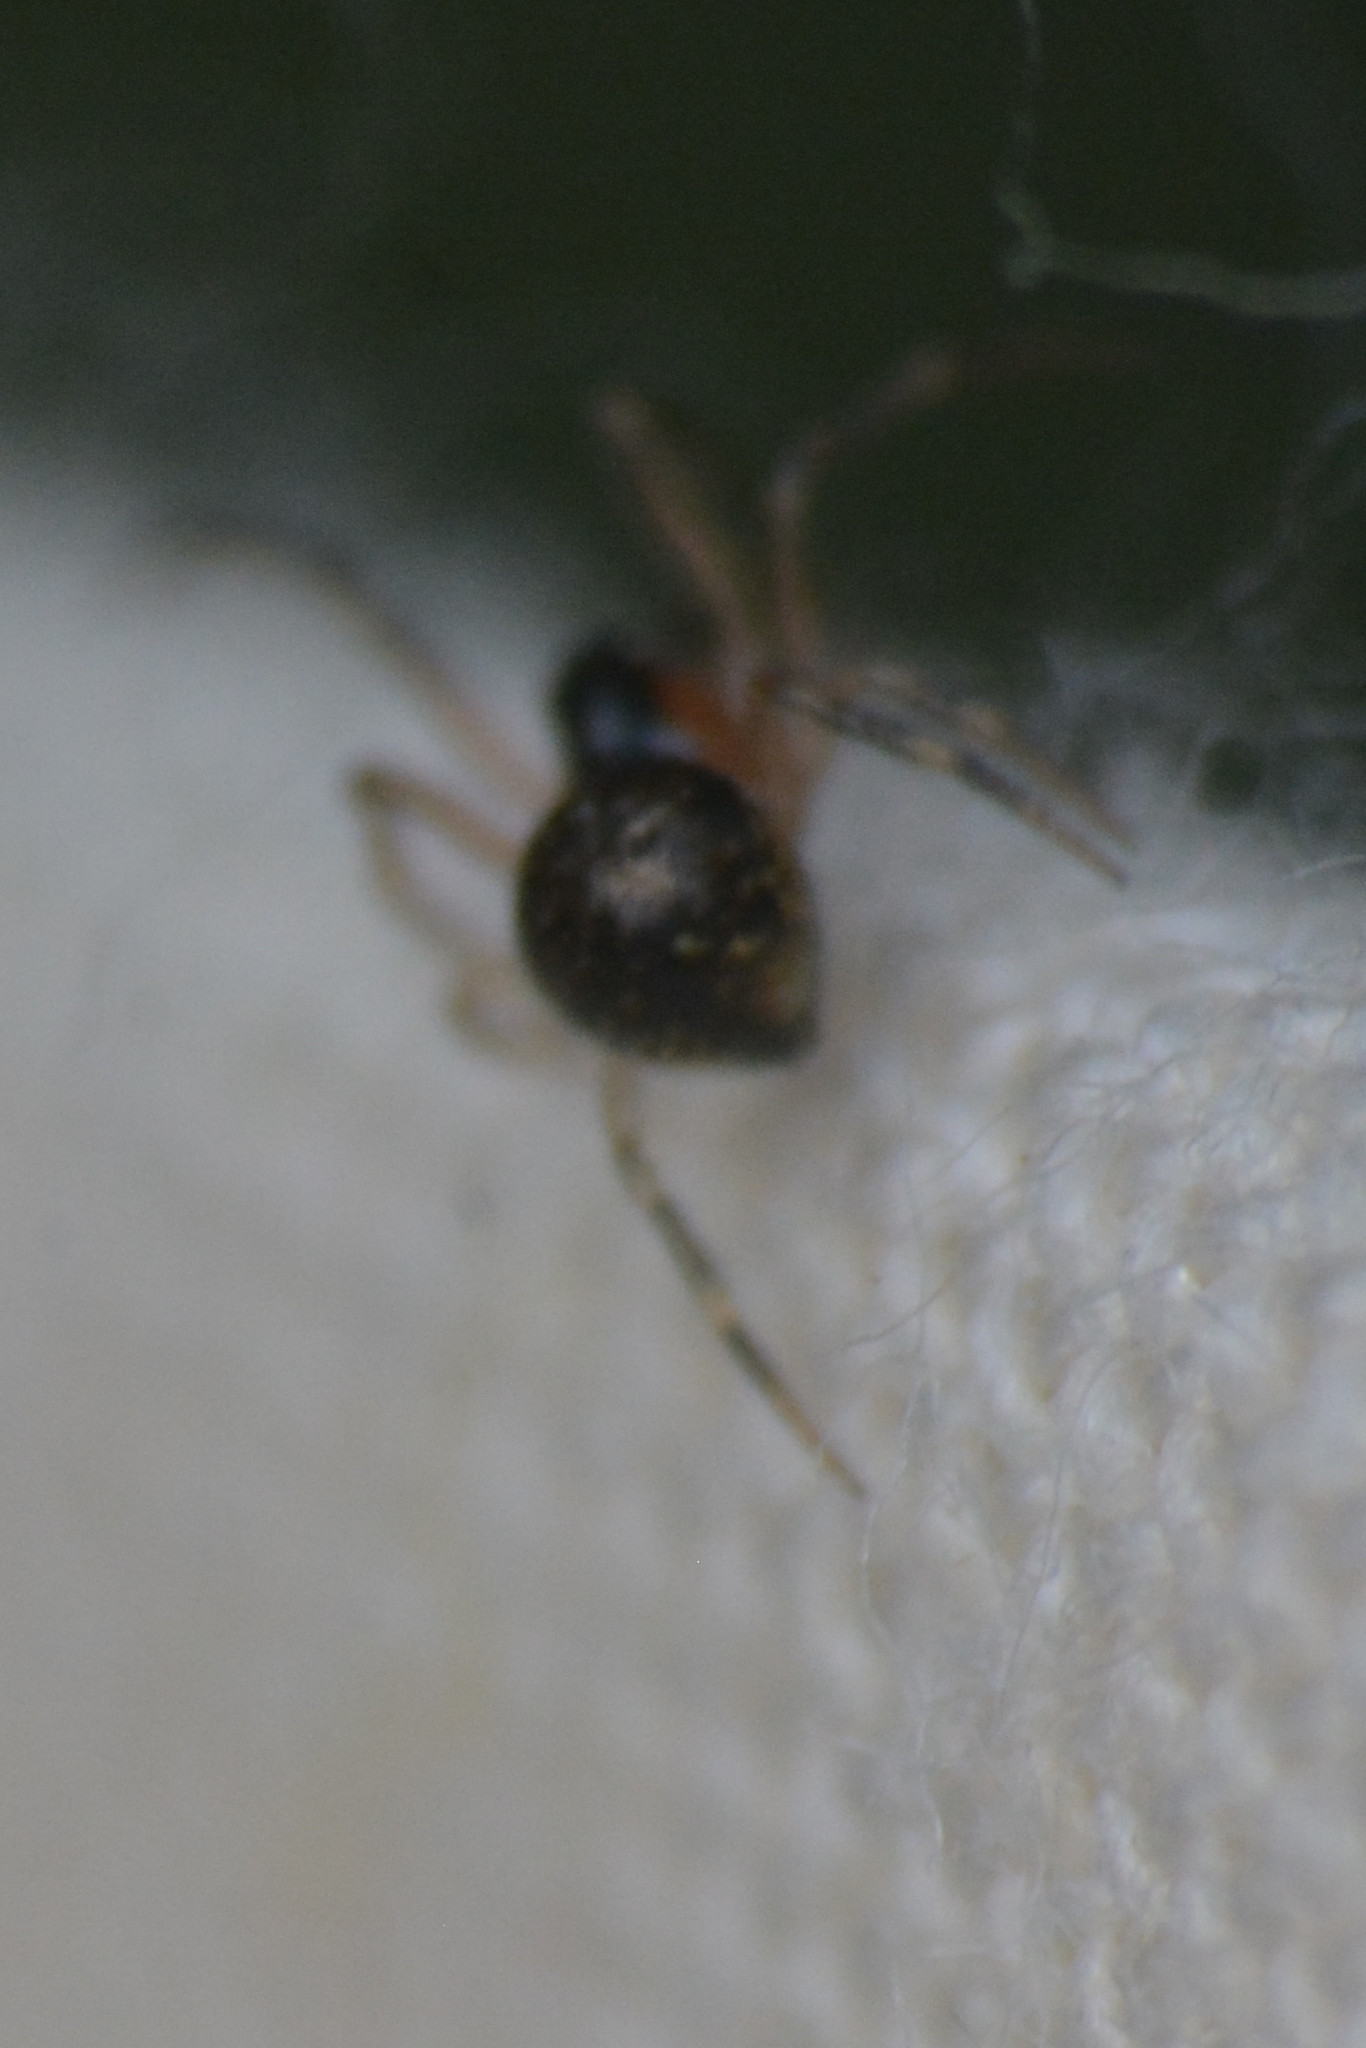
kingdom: Animalia
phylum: Arthropoda
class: Arachnida
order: Araneae
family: Theridiidae
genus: Paidiscura
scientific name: Paidiscura pallens
